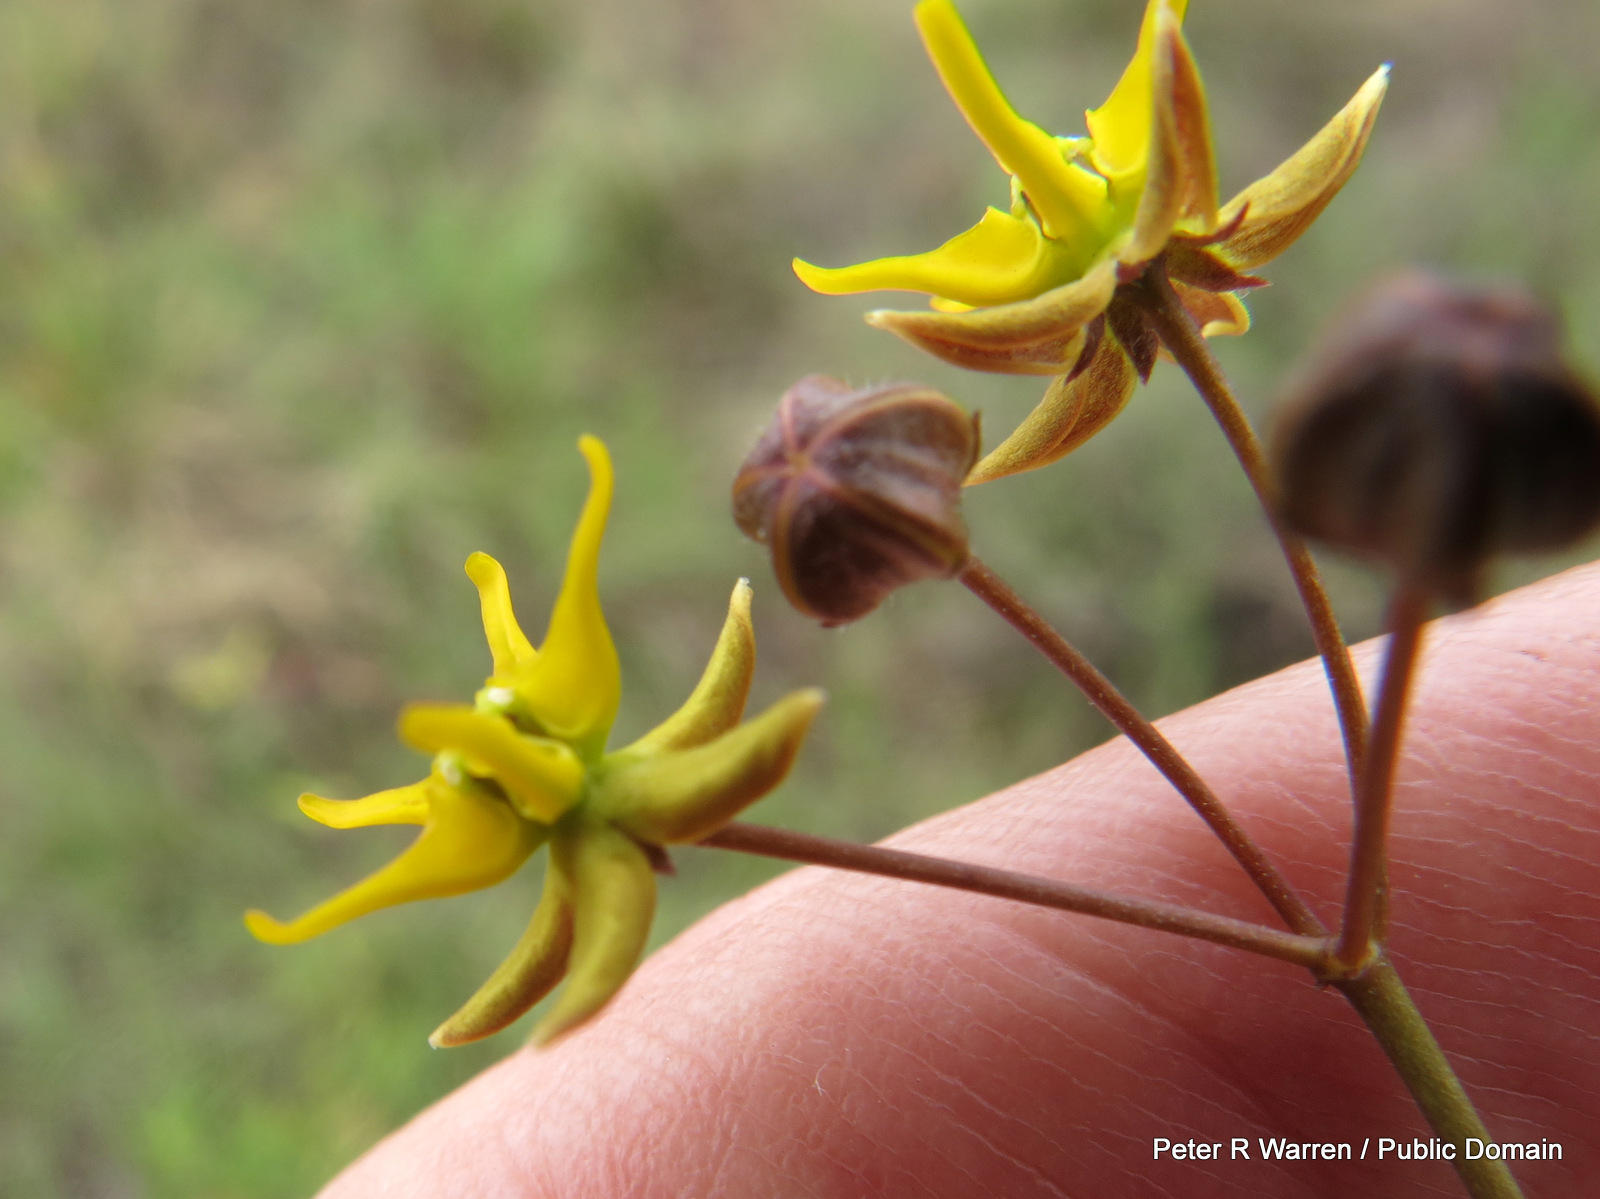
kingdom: Plantae
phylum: Tracheophyta
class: Magnoliopsida
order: Gentianales
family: Apocynaceae
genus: Asclepias
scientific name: Asclepias aurea
